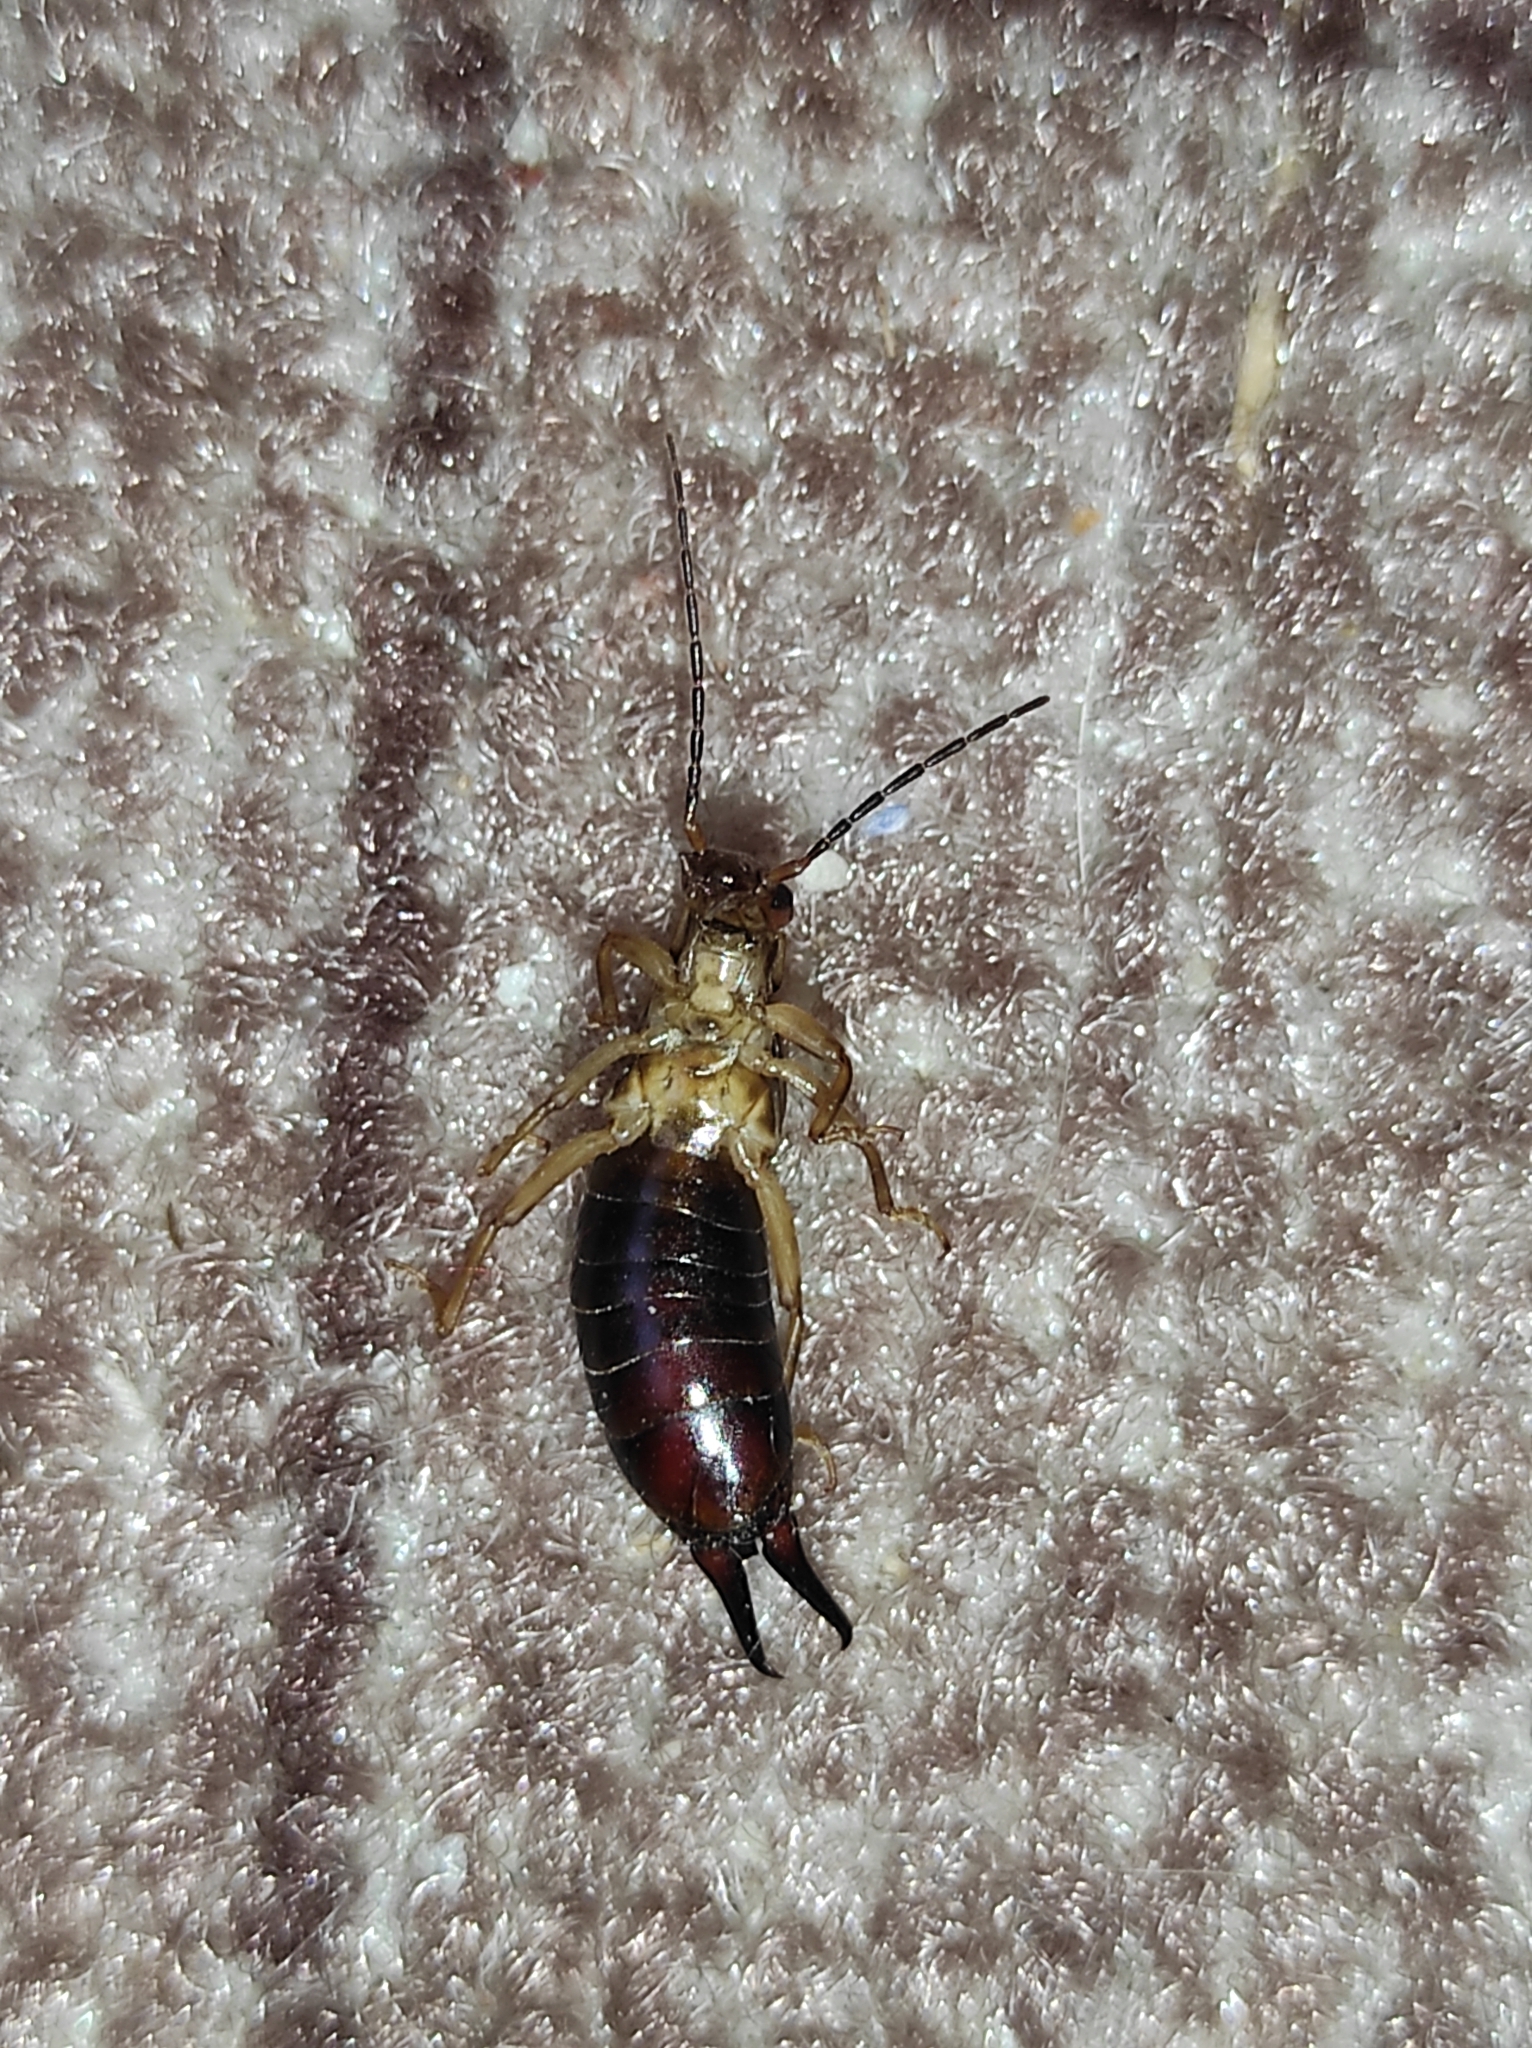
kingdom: Animalia
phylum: Arthropoda
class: Insecta
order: Dermaptera
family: Forficulidae
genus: Forficula
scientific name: Forficula tomis
